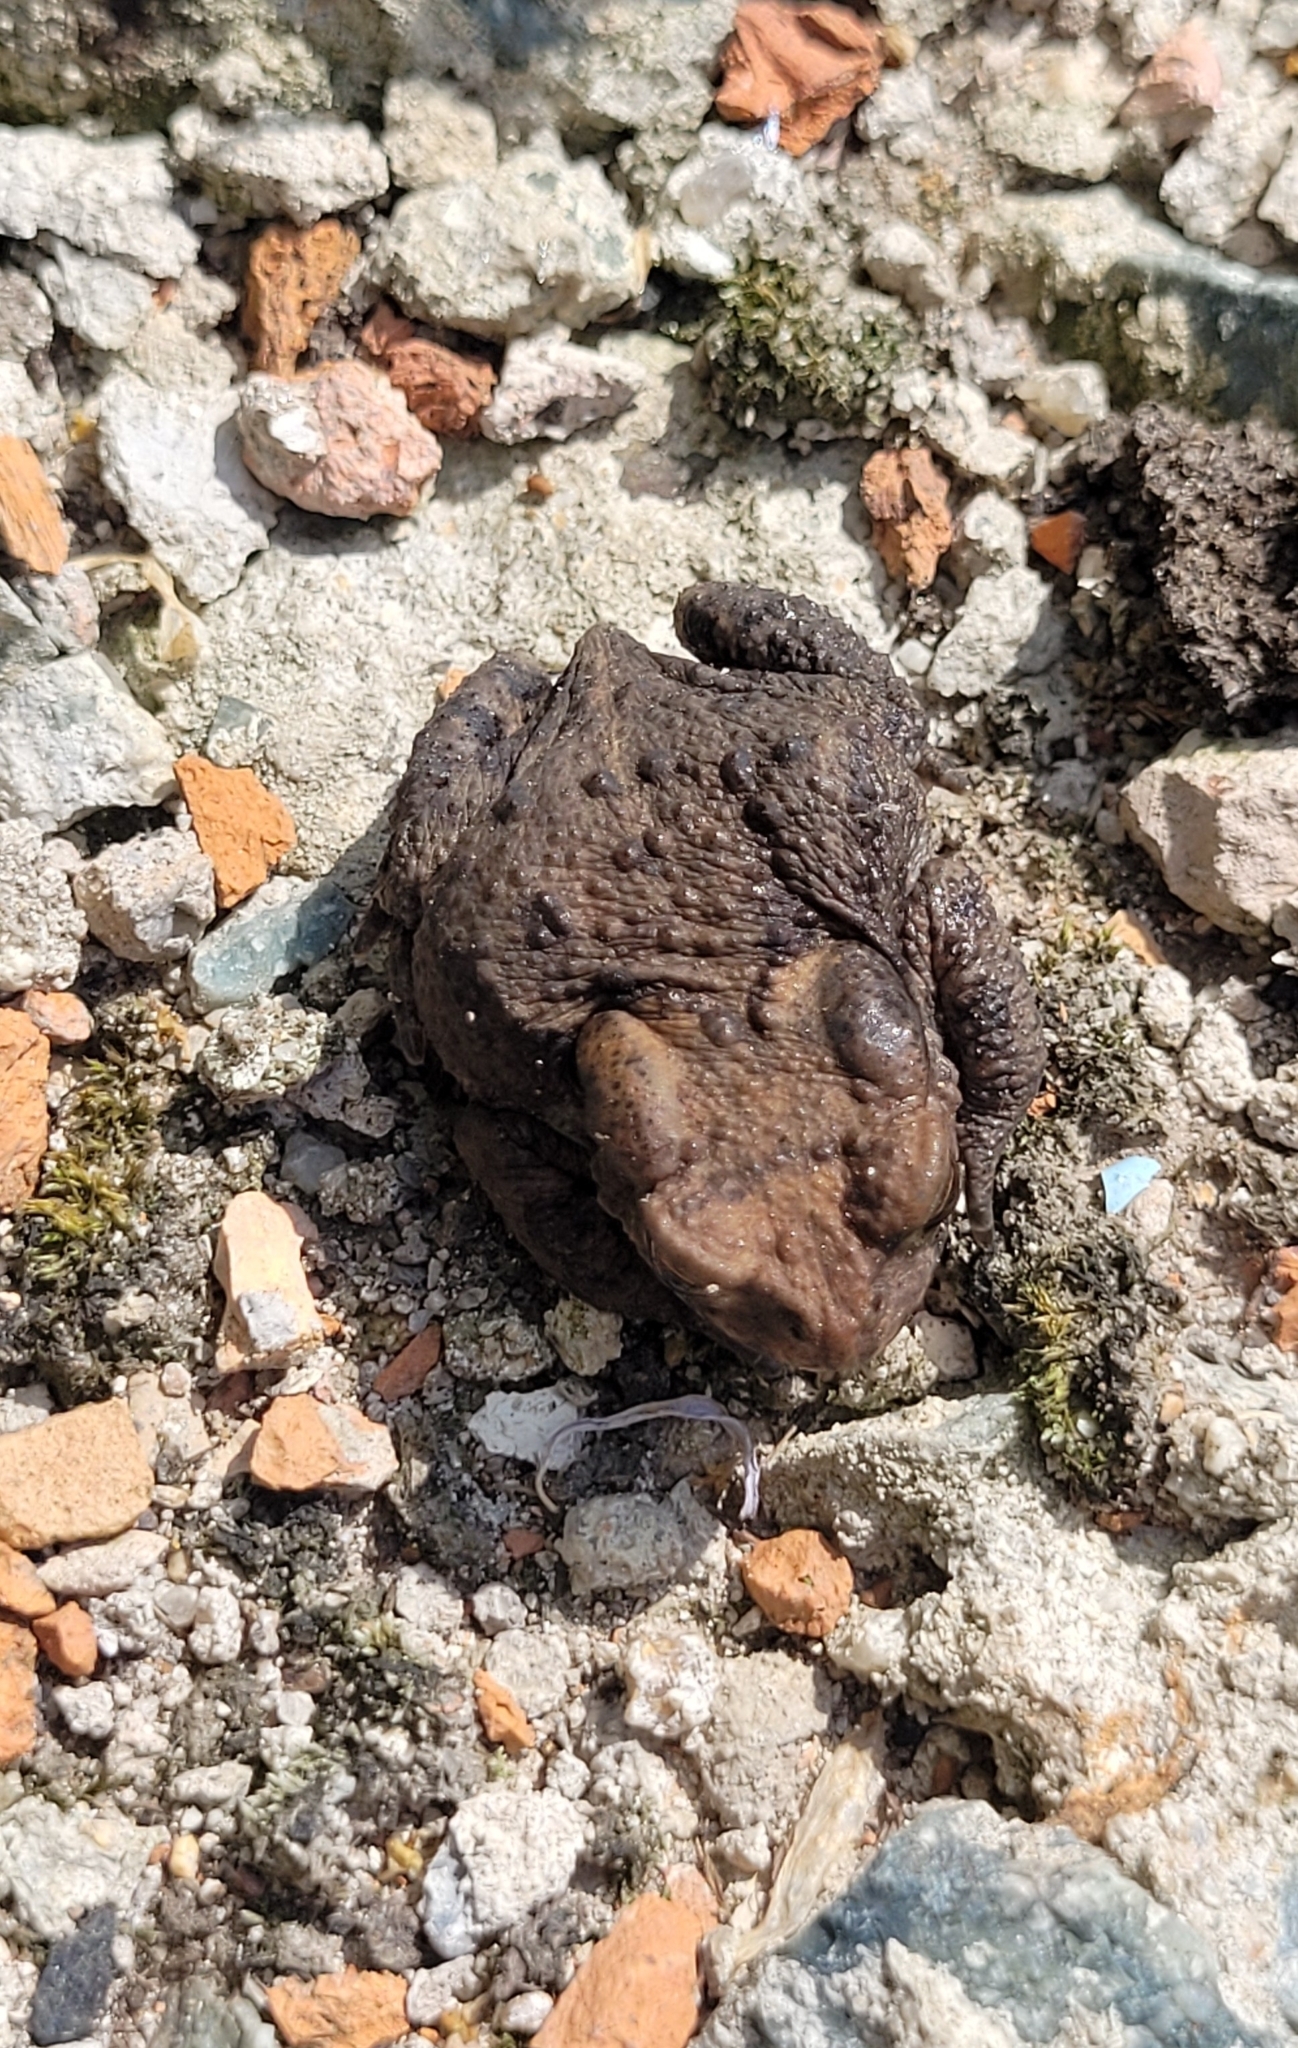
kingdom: Animalia
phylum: Chordata
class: Amphibia
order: Anura
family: Bufonidae
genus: Bufo
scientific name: Bufo gargarizans
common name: Asiatic toad
